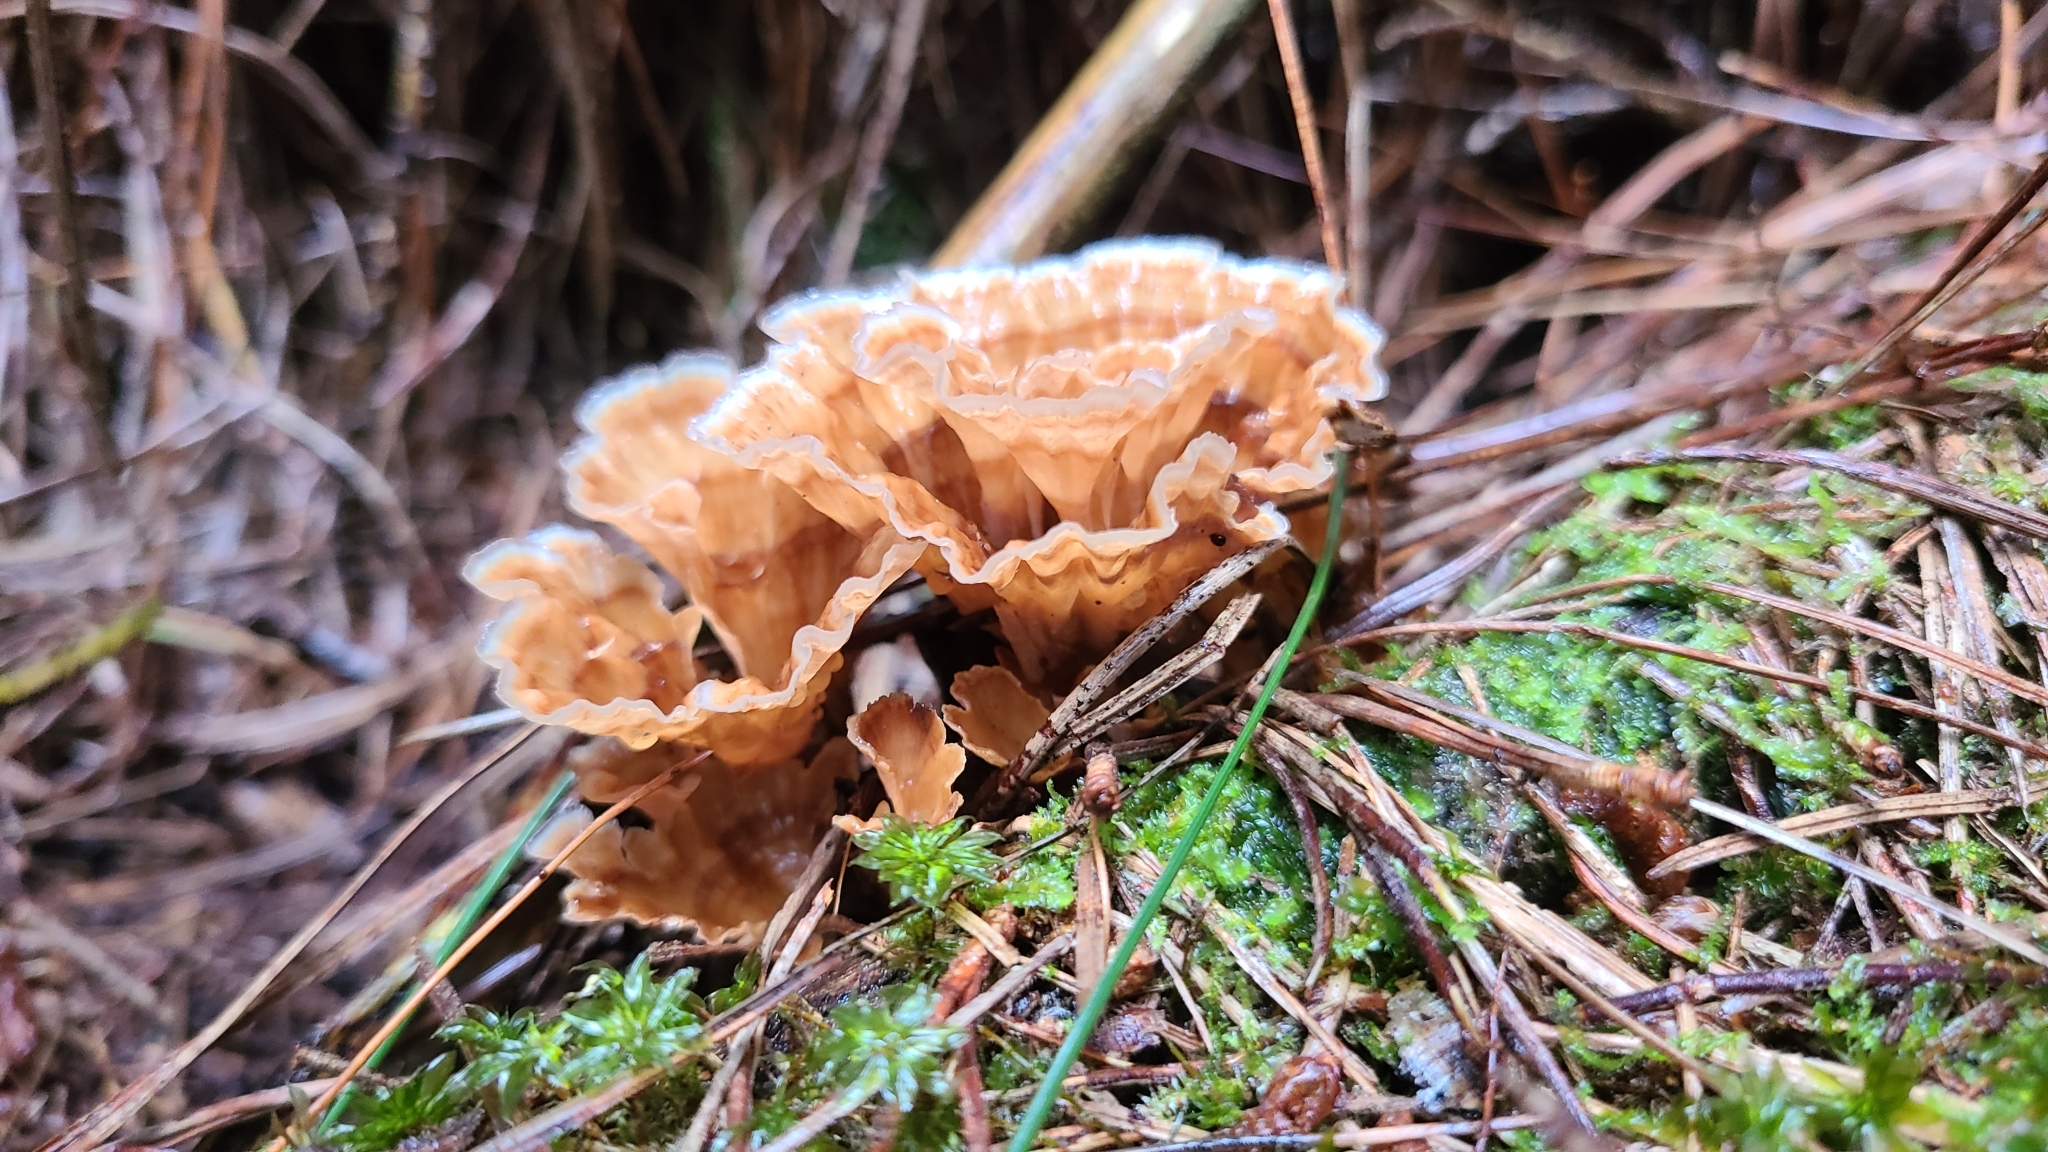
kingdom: Fungi
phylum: Basidiomycota
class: Agaricomycetes
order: Polyporales
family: Podoscyphaceae
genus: Podoscypha
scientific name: Podoscypha petalodes
